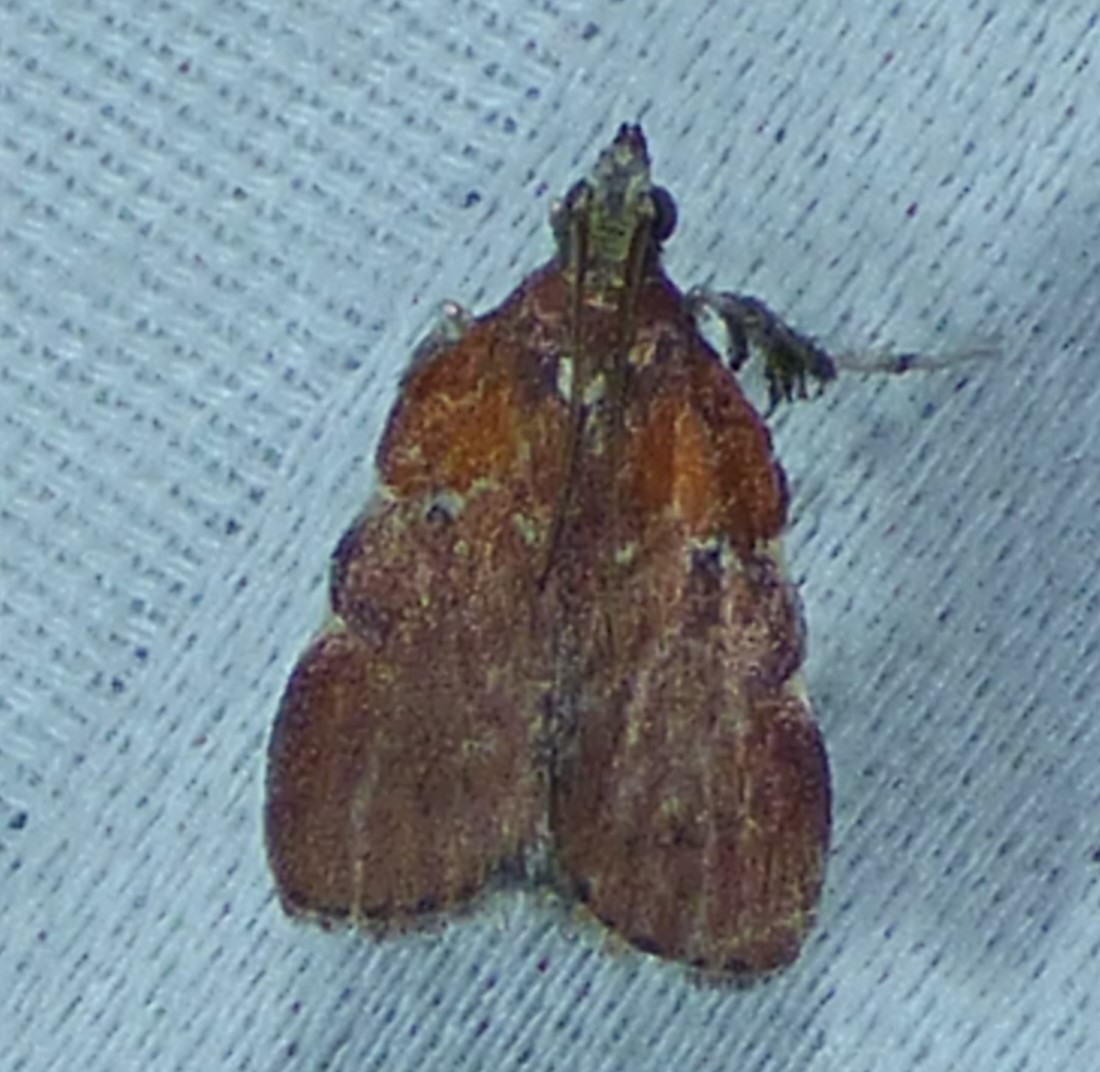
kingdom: Animalia
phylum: Arthropoda
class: Insecta
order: Lepidoptera
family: Pyralidae
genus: Galasa
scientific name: Galasa nigrinodis
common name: Boxwood leaftier moth
